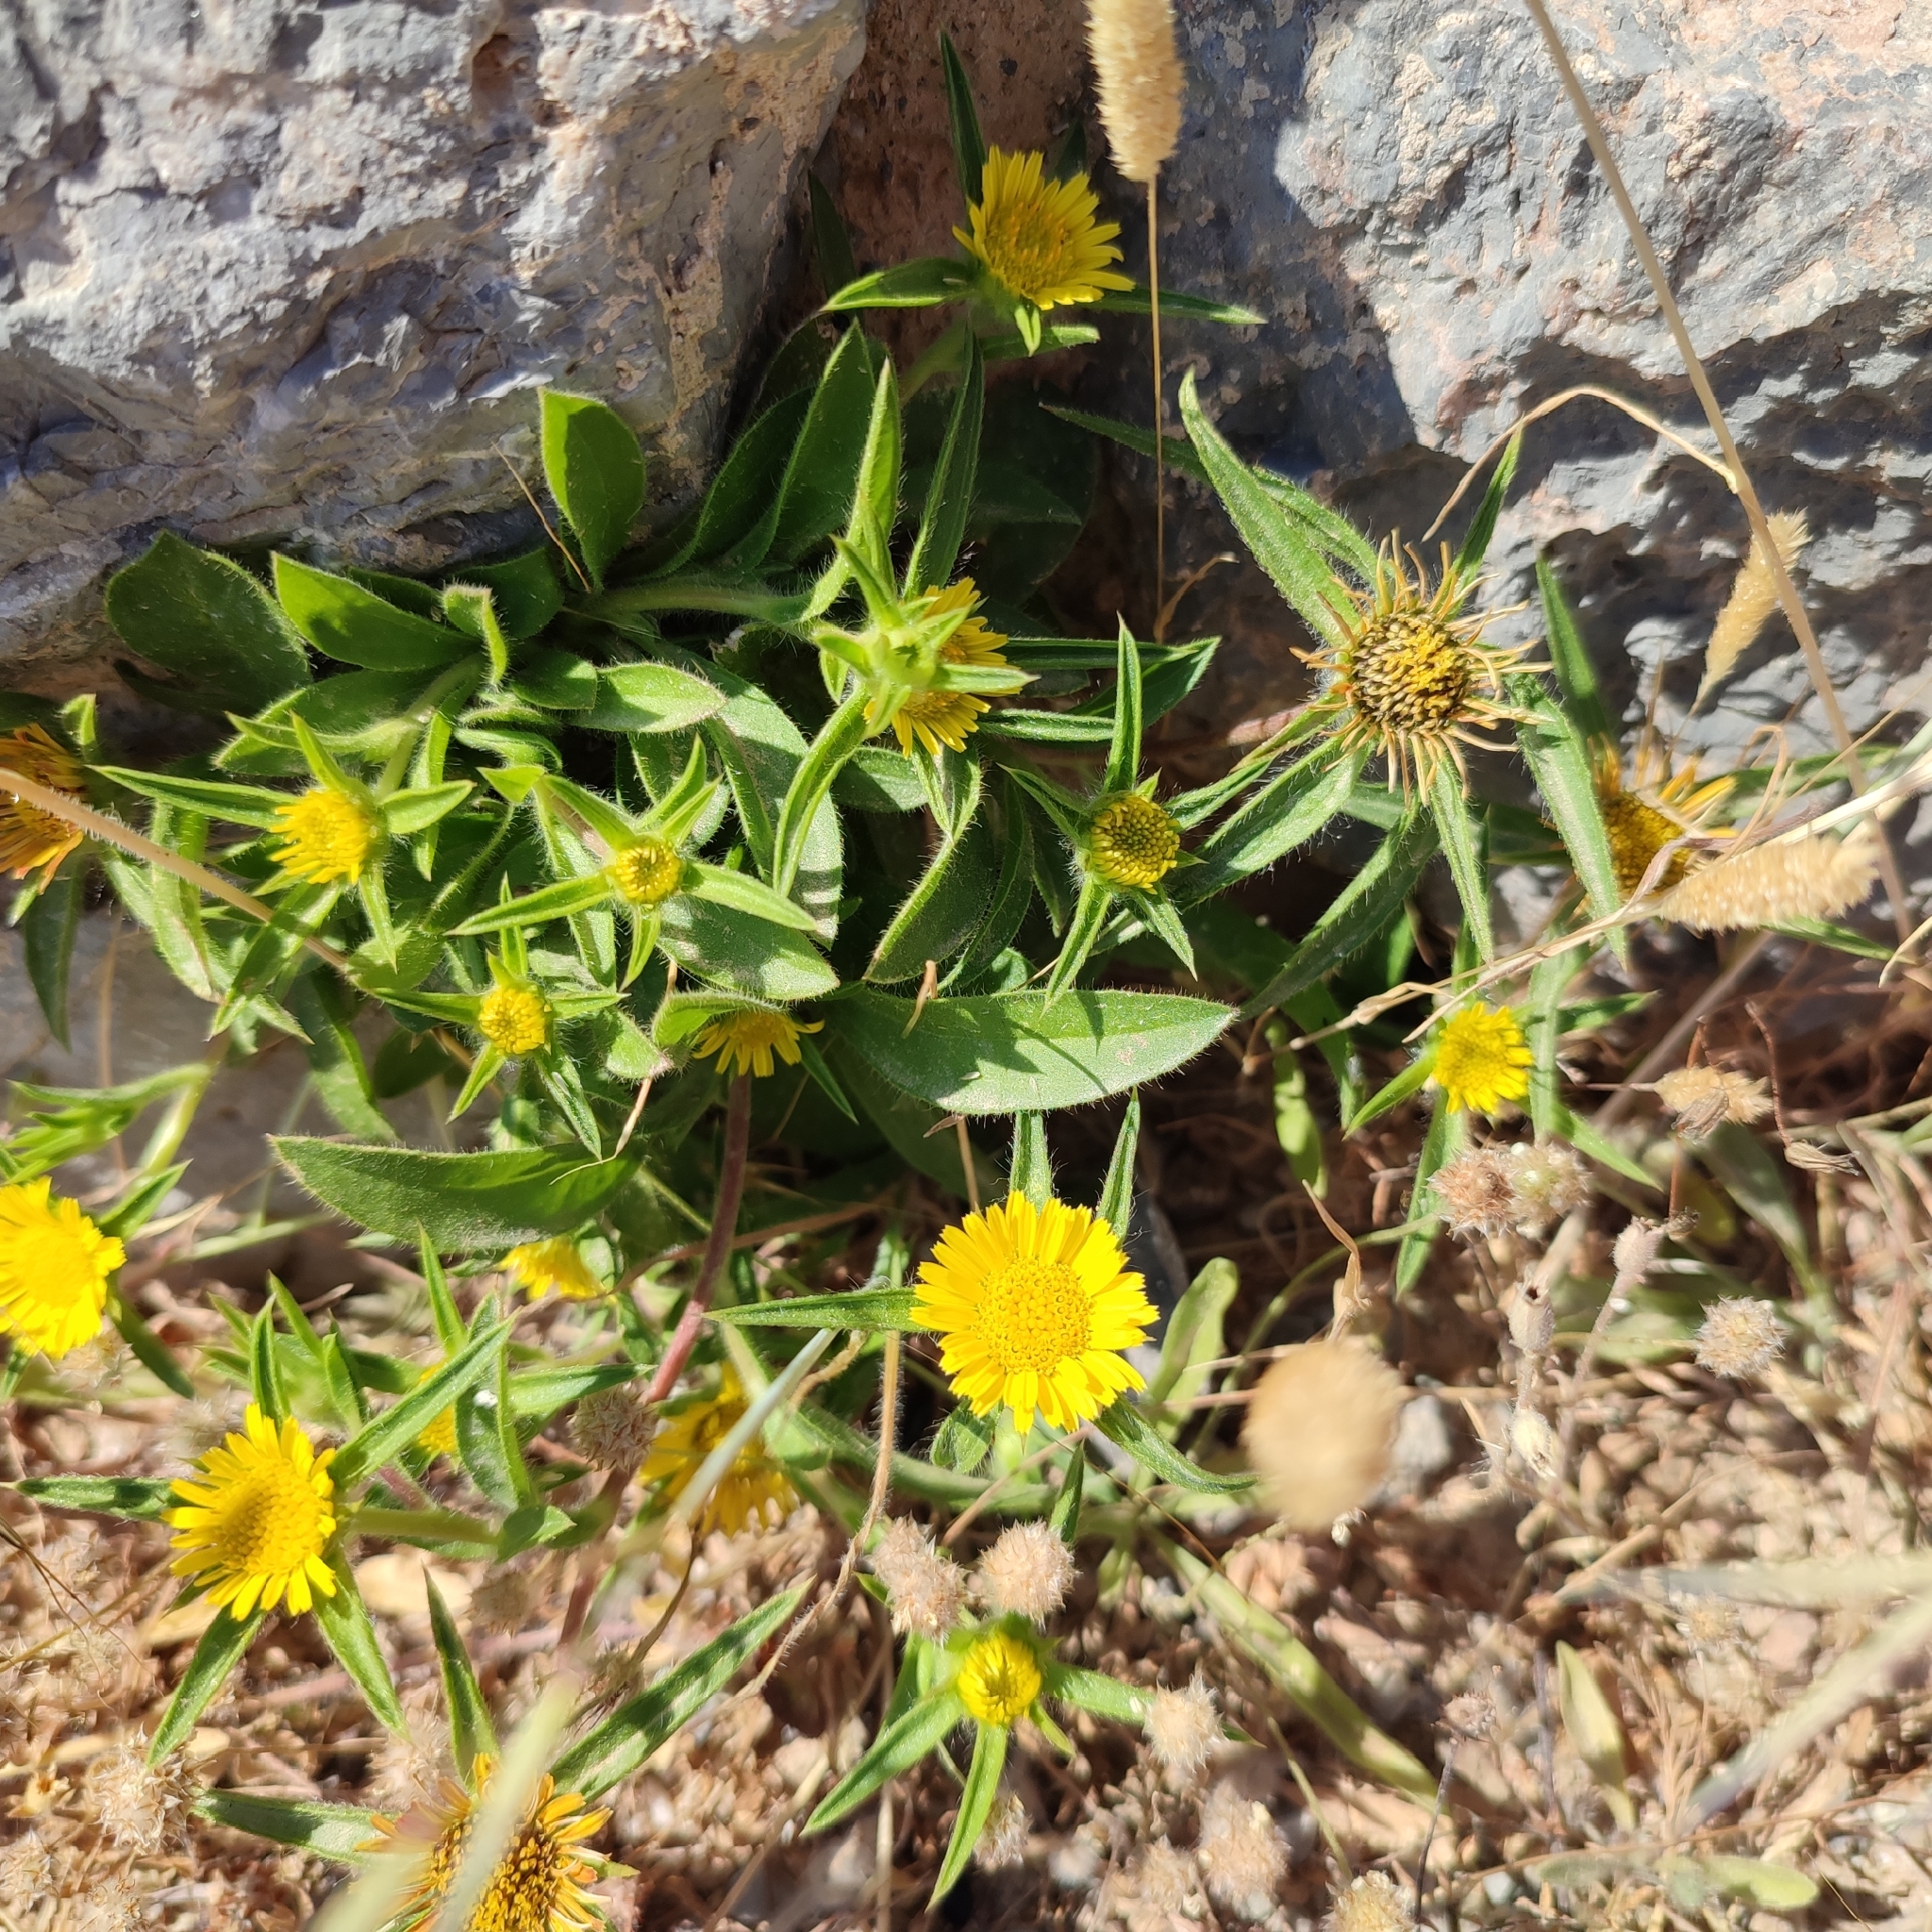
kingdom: Plantae
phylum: Tracheophyta
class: Magnoliopsida
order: Asterales
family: Asteraceae
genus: Pallenis
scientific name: Pallenis spinosa
